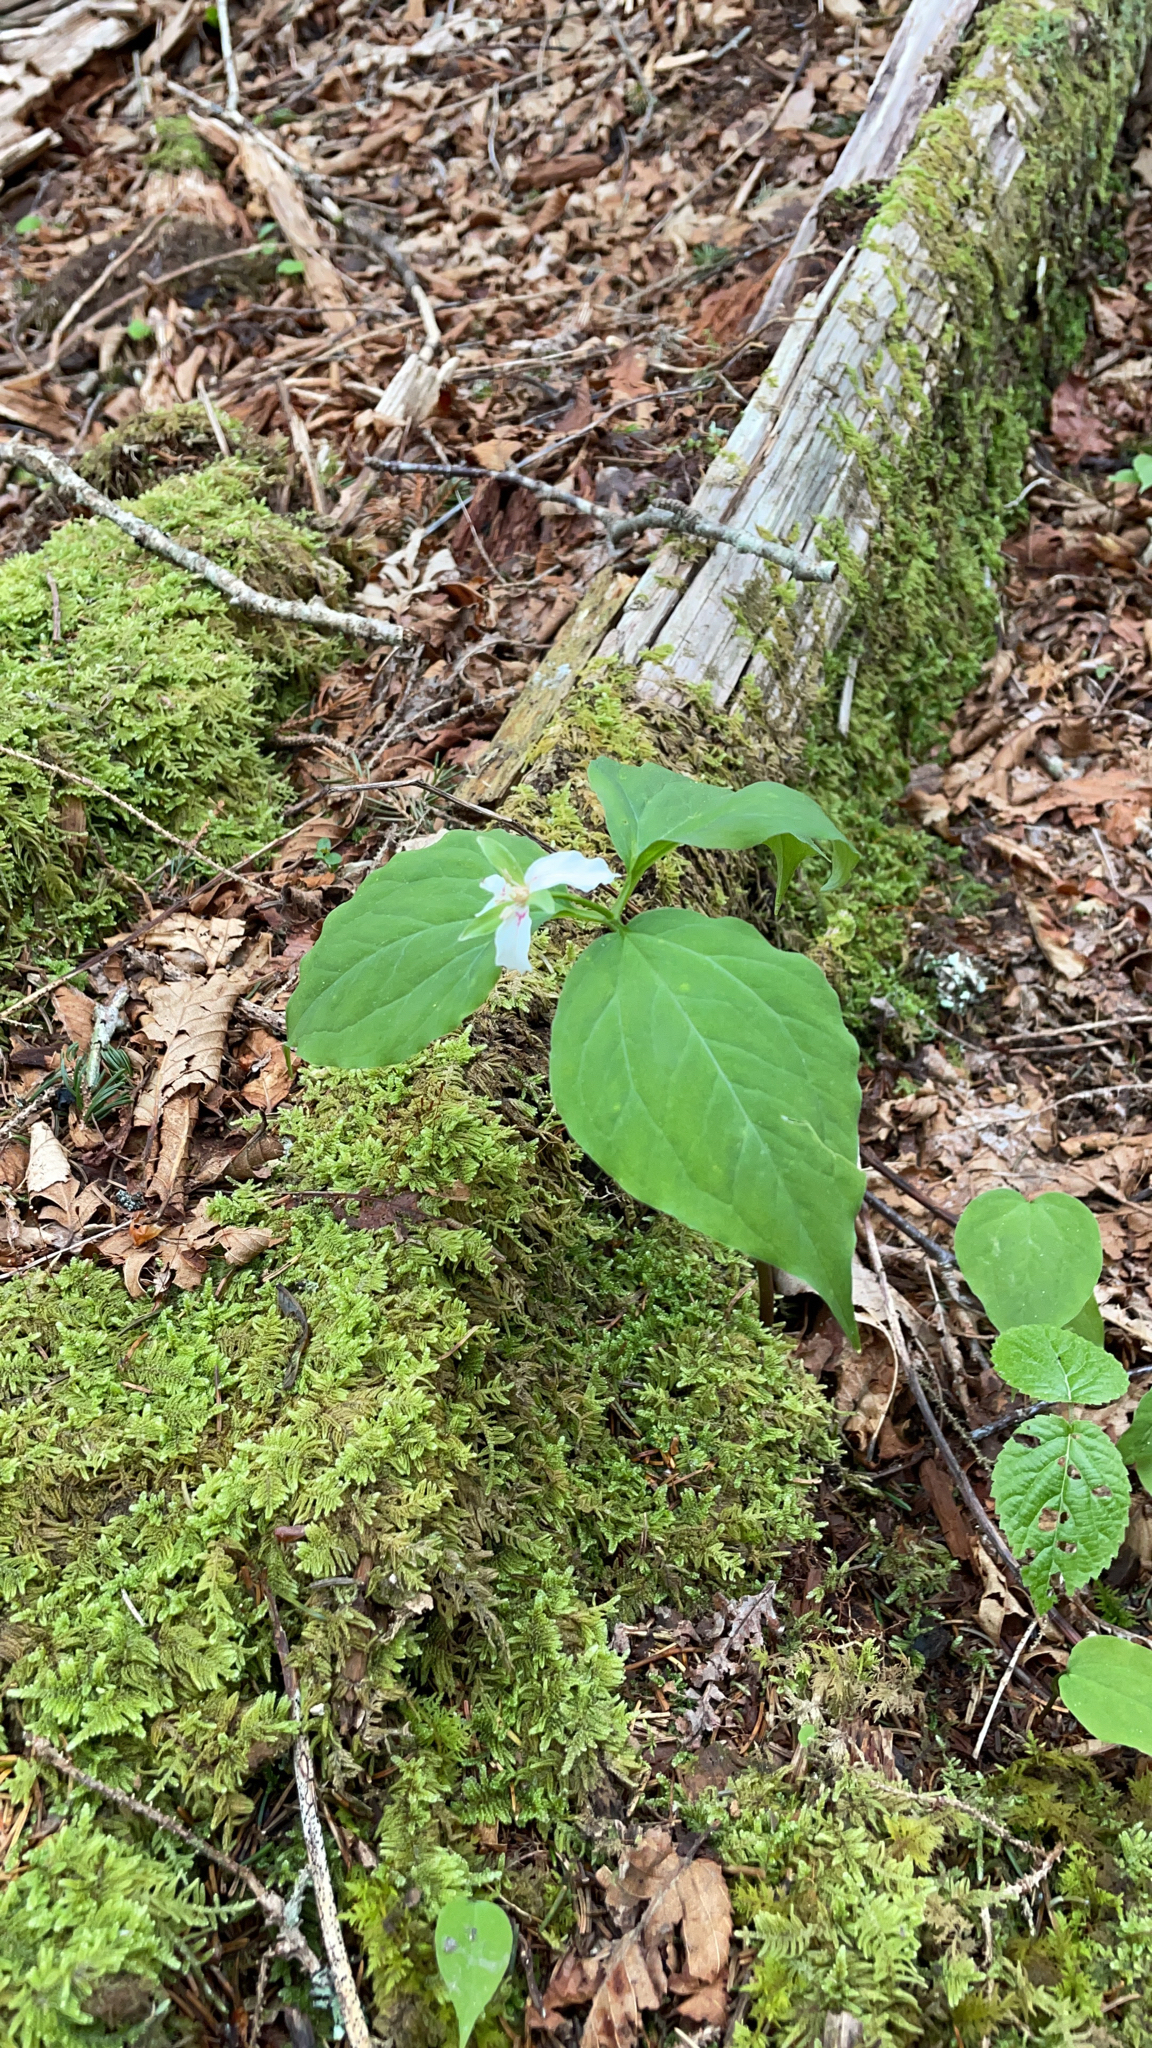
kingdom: Plantae
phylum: Tracheophyta
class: Liliopsida
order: Liliales
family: Melanthiaceae
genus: Trillium
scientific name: Trillium undulatum
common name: Paint trillium
